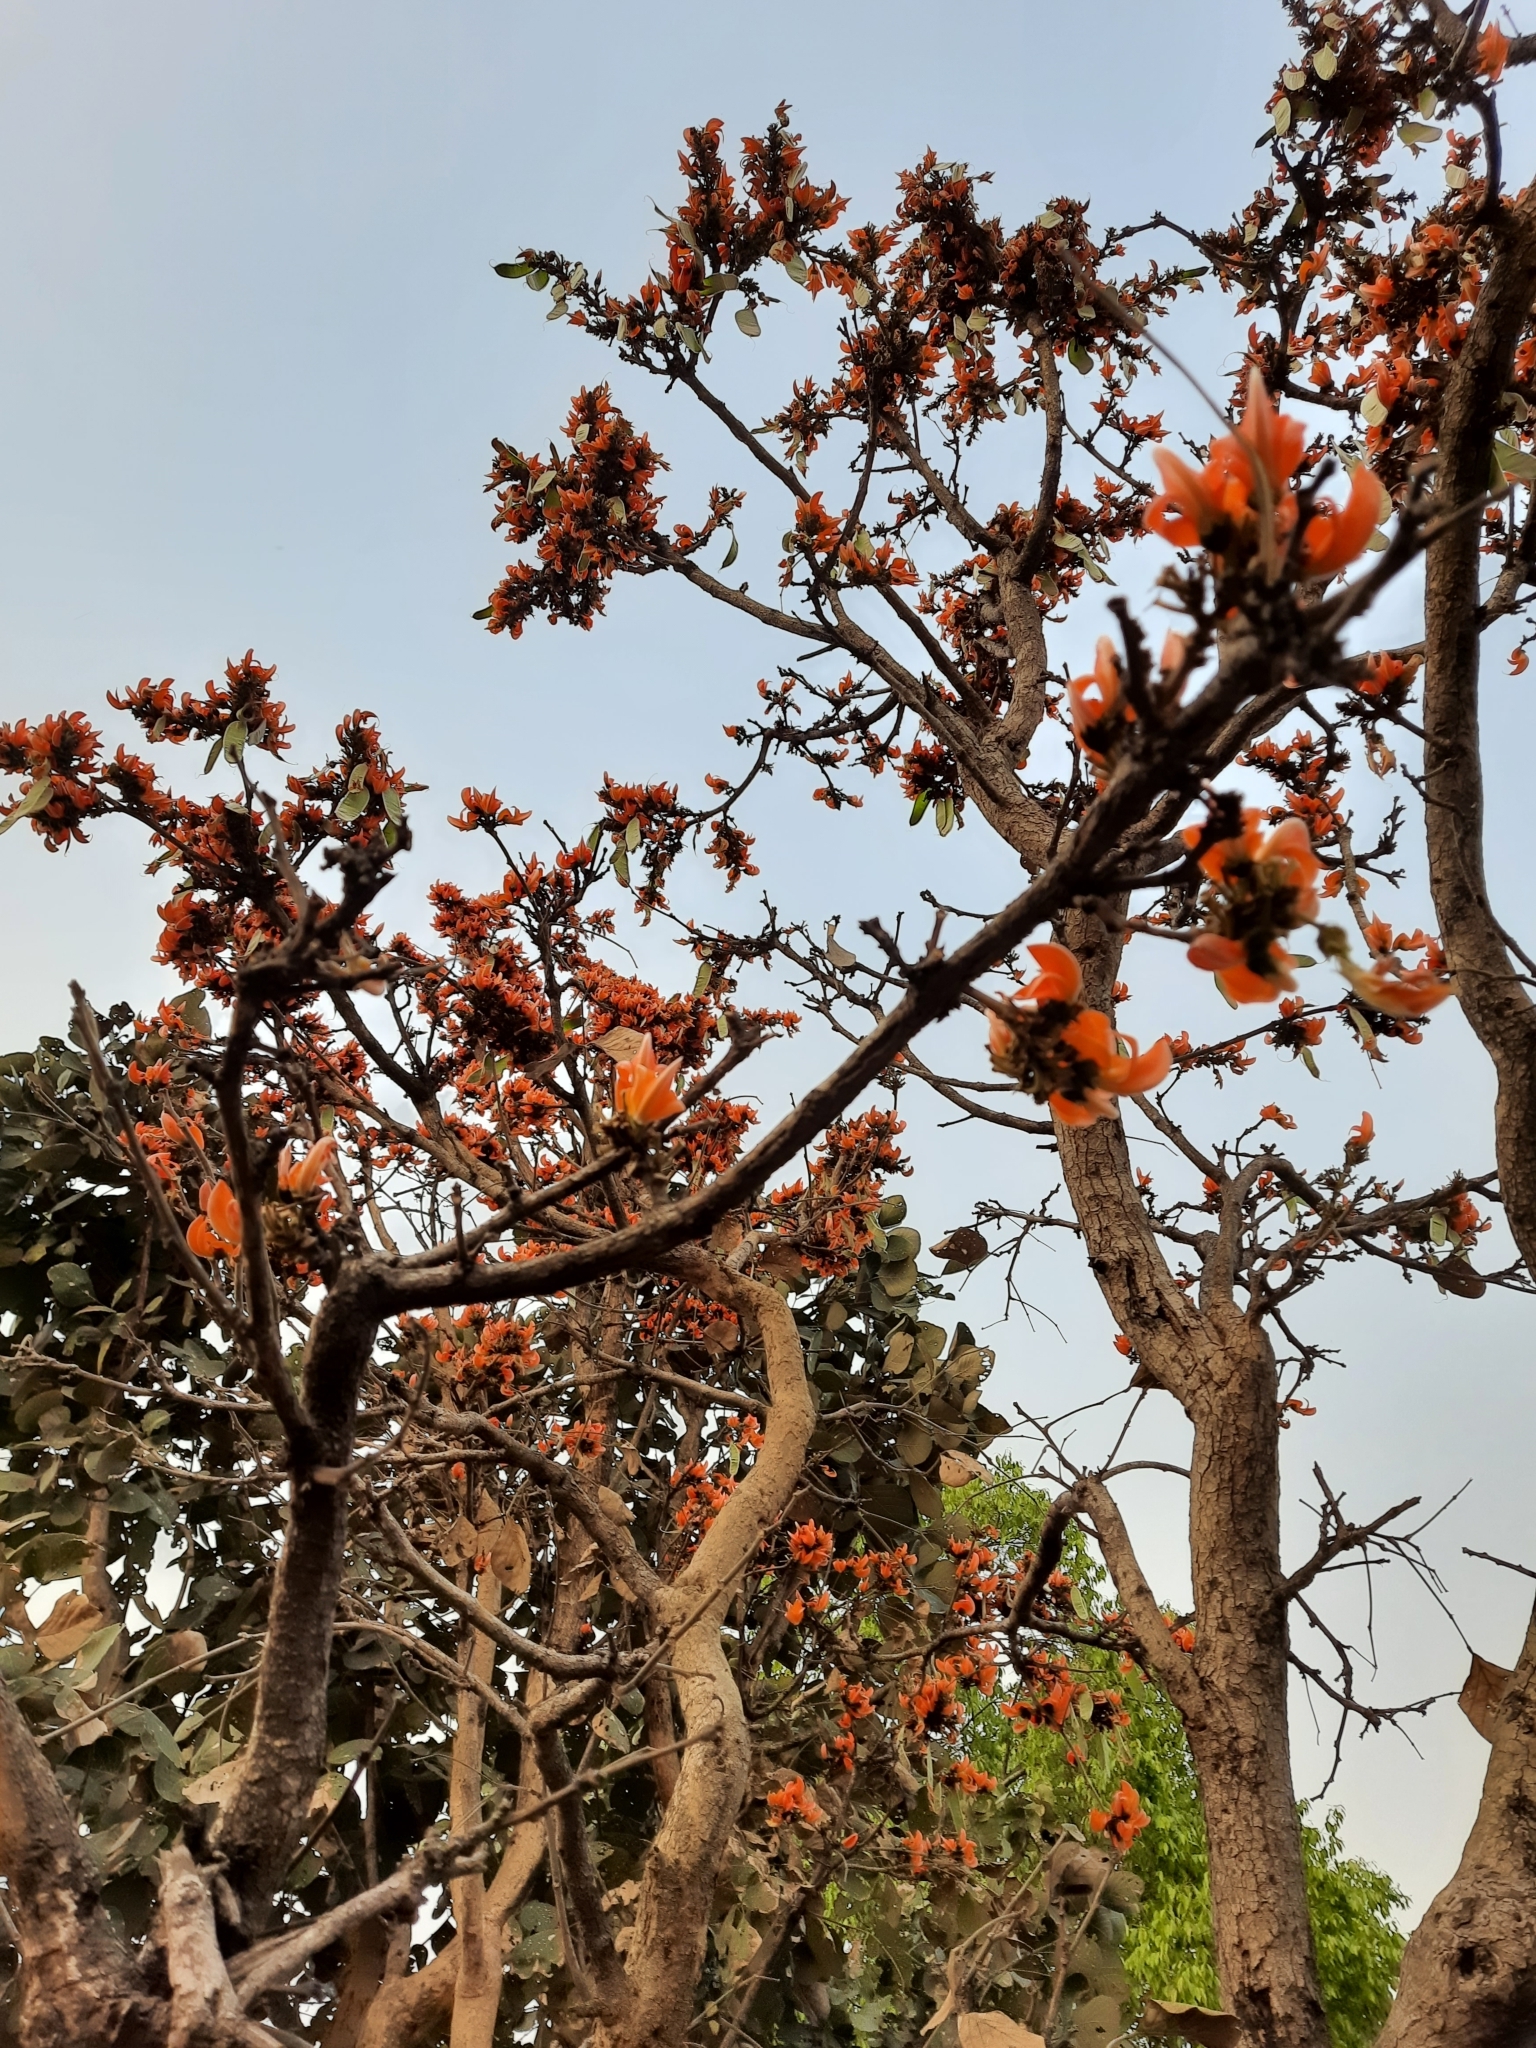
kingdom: Plantae
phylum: Tracheophyta
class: Magnoliopsida
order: Fabales
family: Fabaceae
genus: Butea
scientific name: Butea monosperma
